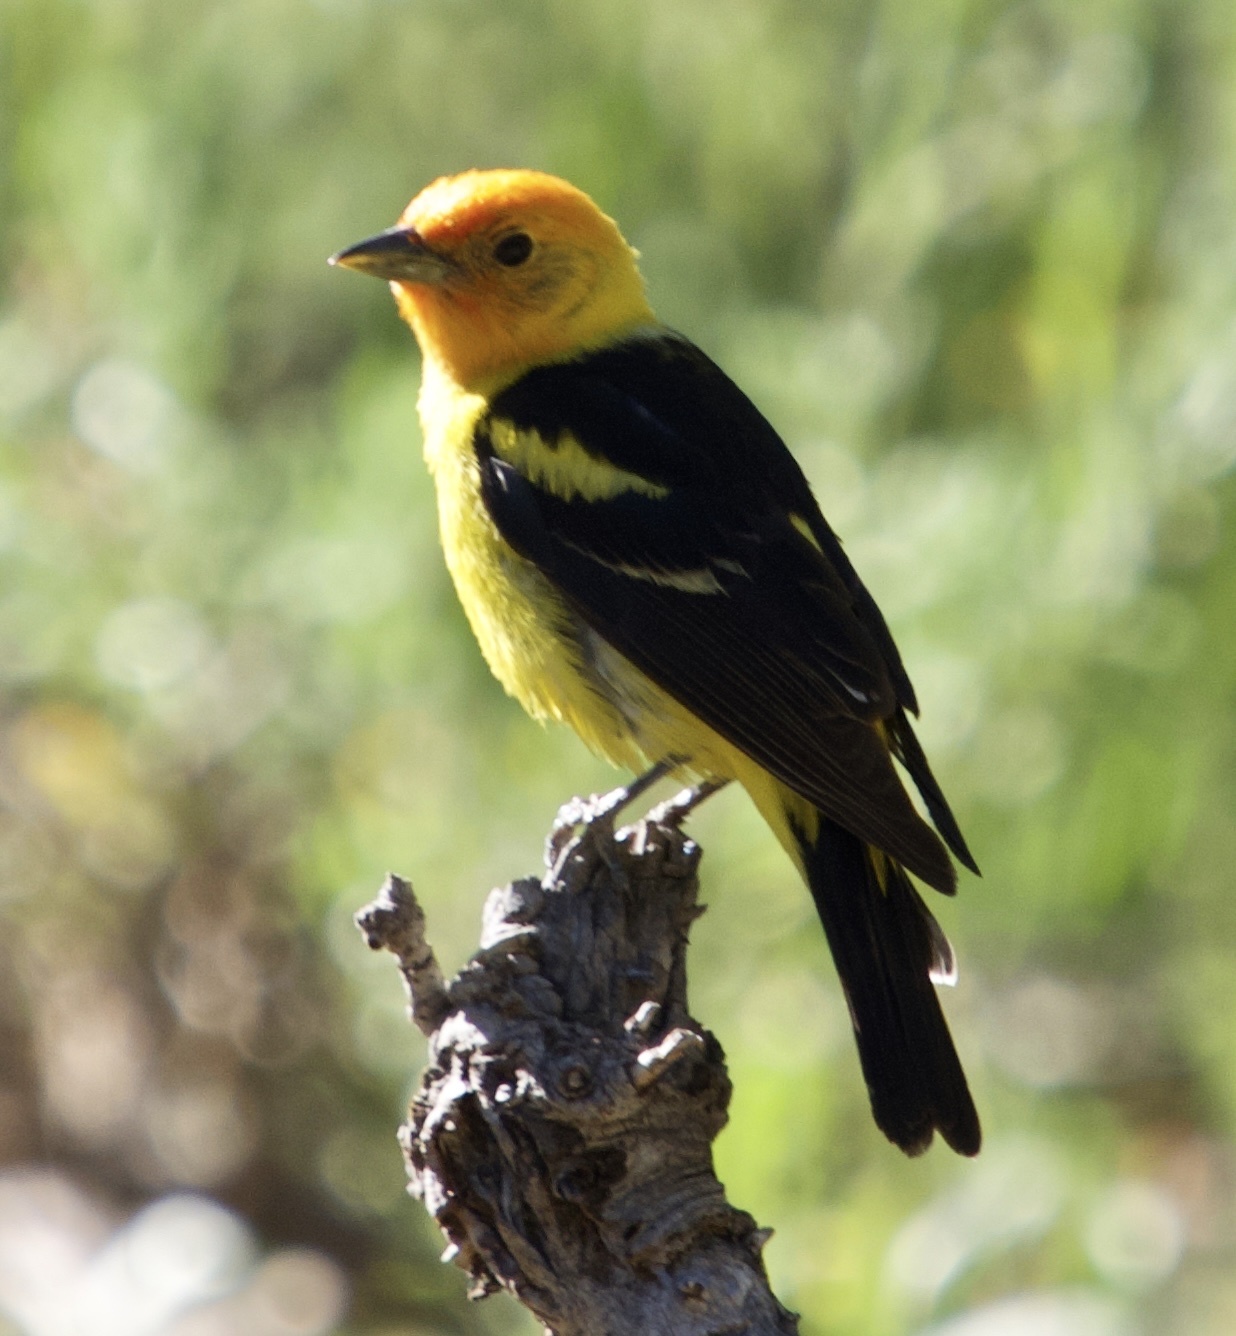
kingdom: Animalia
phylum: Chordata
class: Aves
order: Passeriformes
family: Cardinalidae
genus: Piranga
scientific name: Piranga ludoviciana
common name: Western tanager
